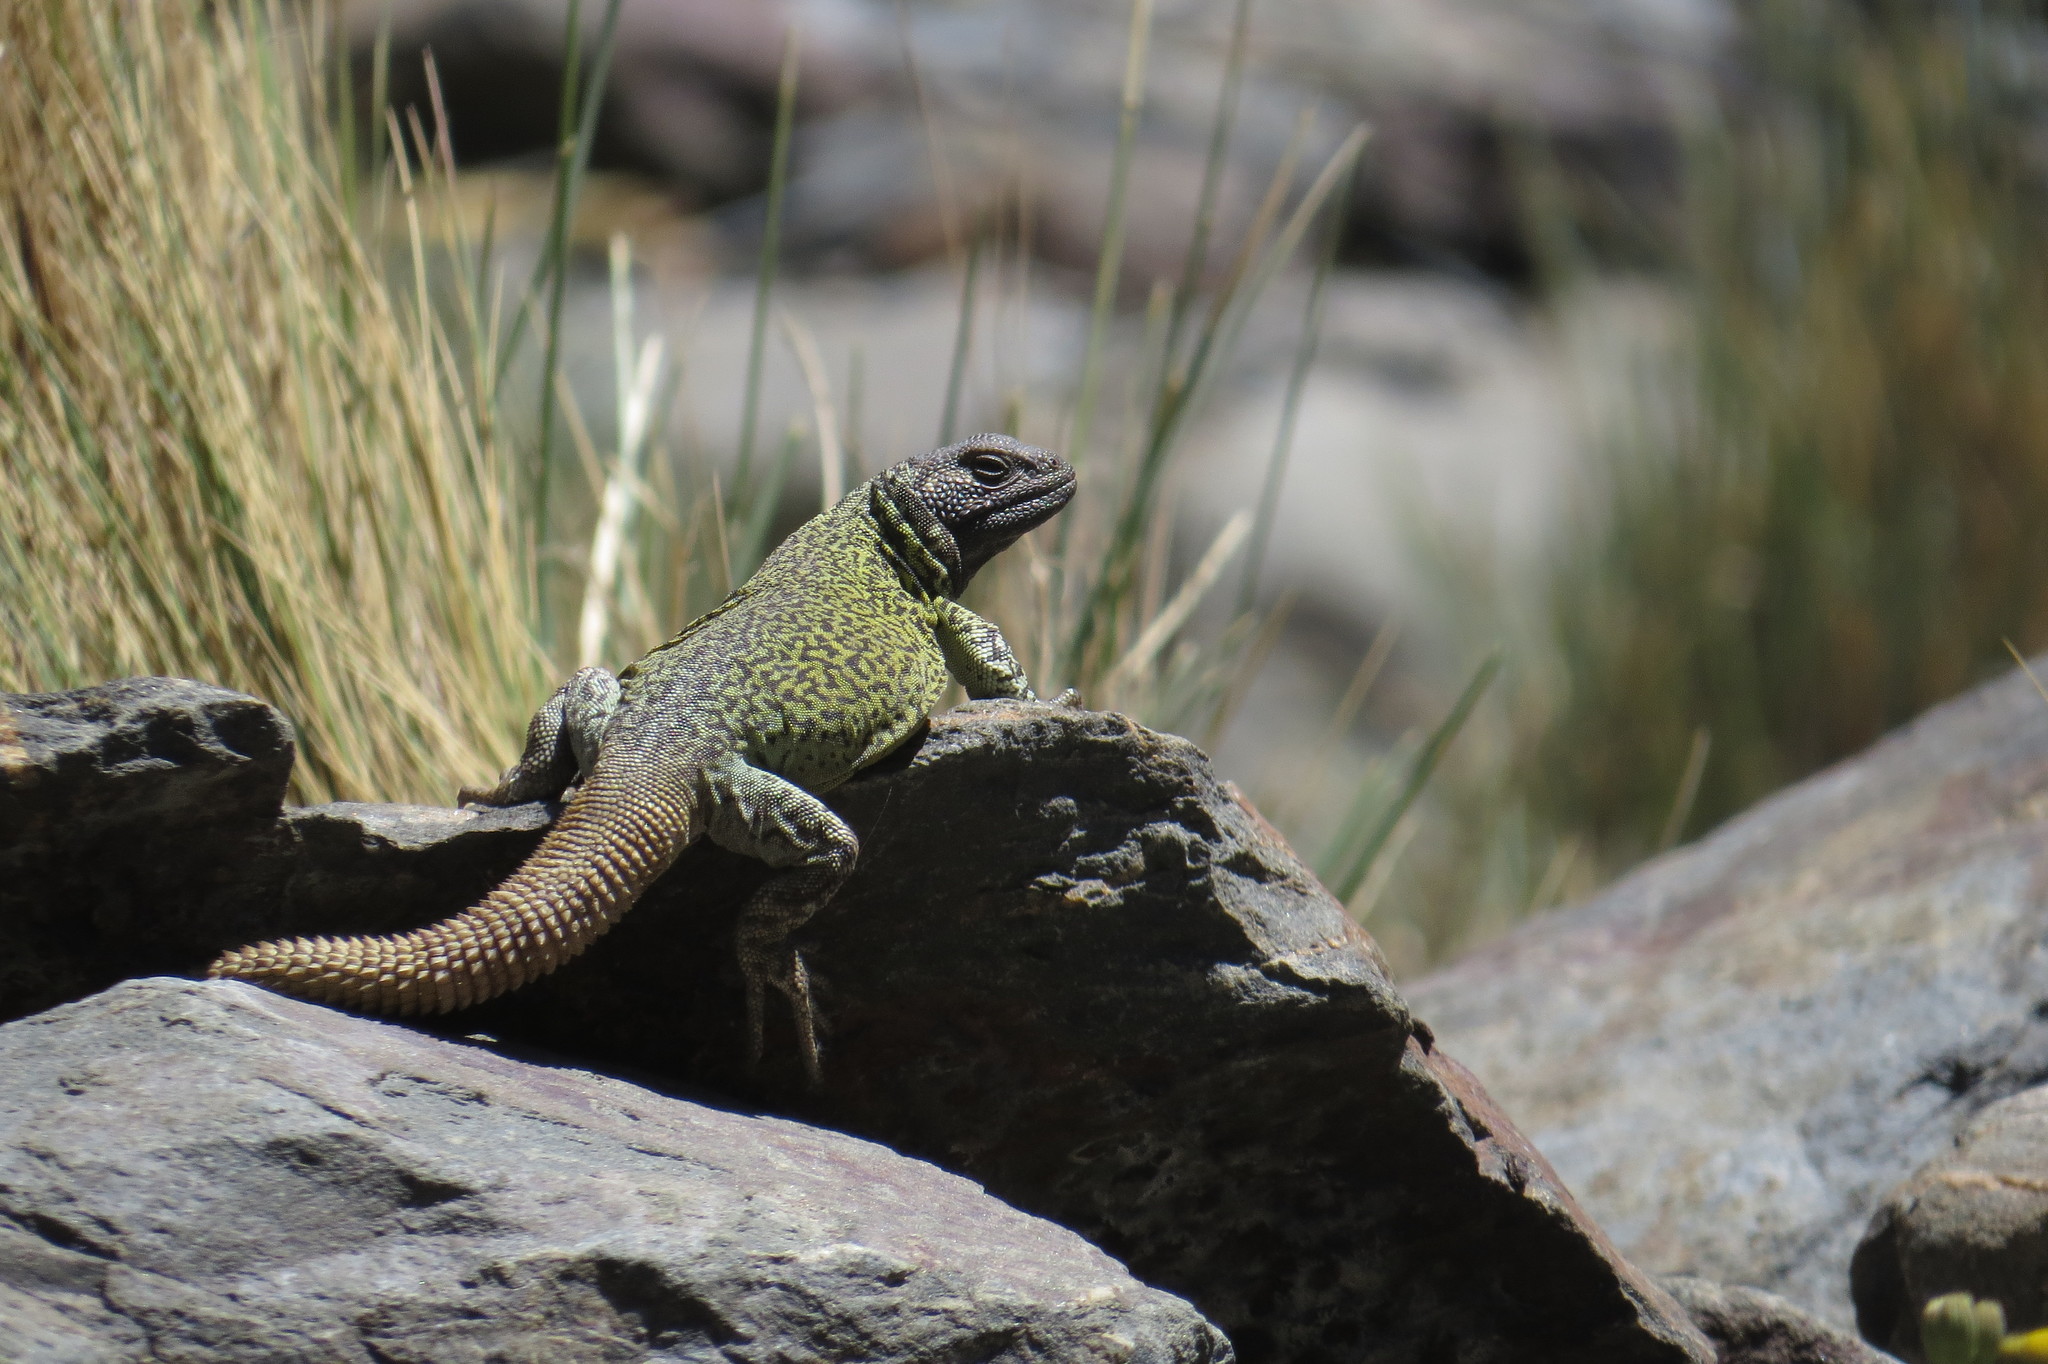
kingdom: Animalia
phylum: Chordata
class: Squamata
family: Liolaemidae
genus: Phymaturus
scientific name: Phymaturus palluma
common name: High mountain lizard
